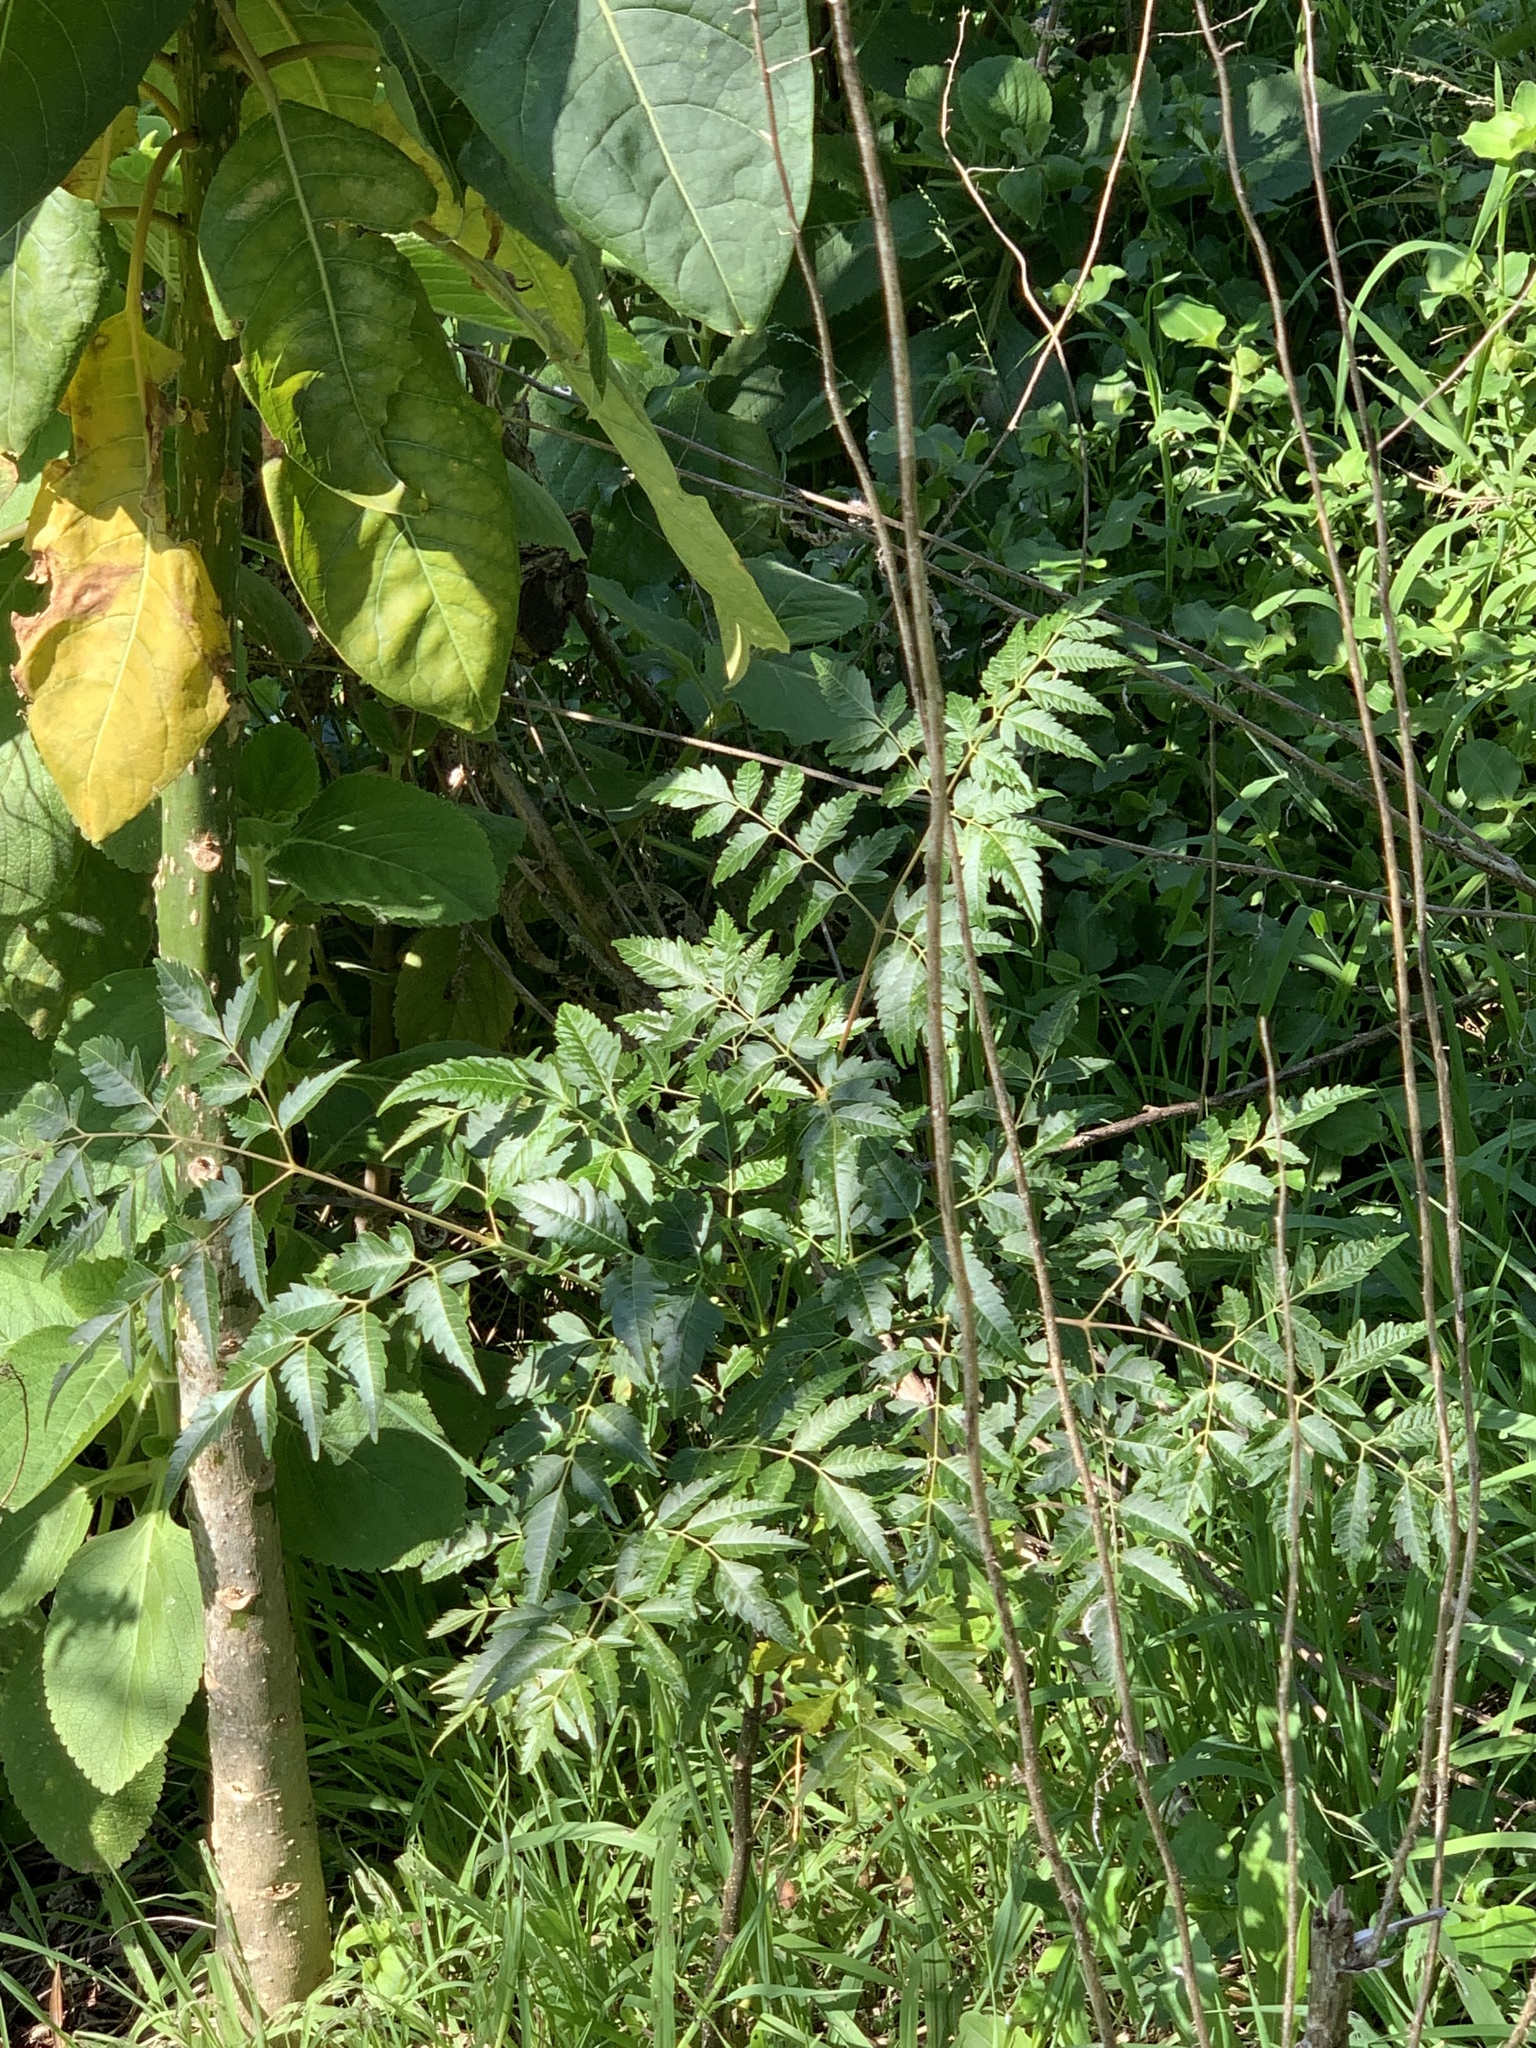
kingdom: Plantae
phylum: Tracheophyta
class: Magnoliopsida
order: Sapindales
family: Meliaceae
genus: Melia
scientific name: Melia azedarach
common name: Chinaberrytree
